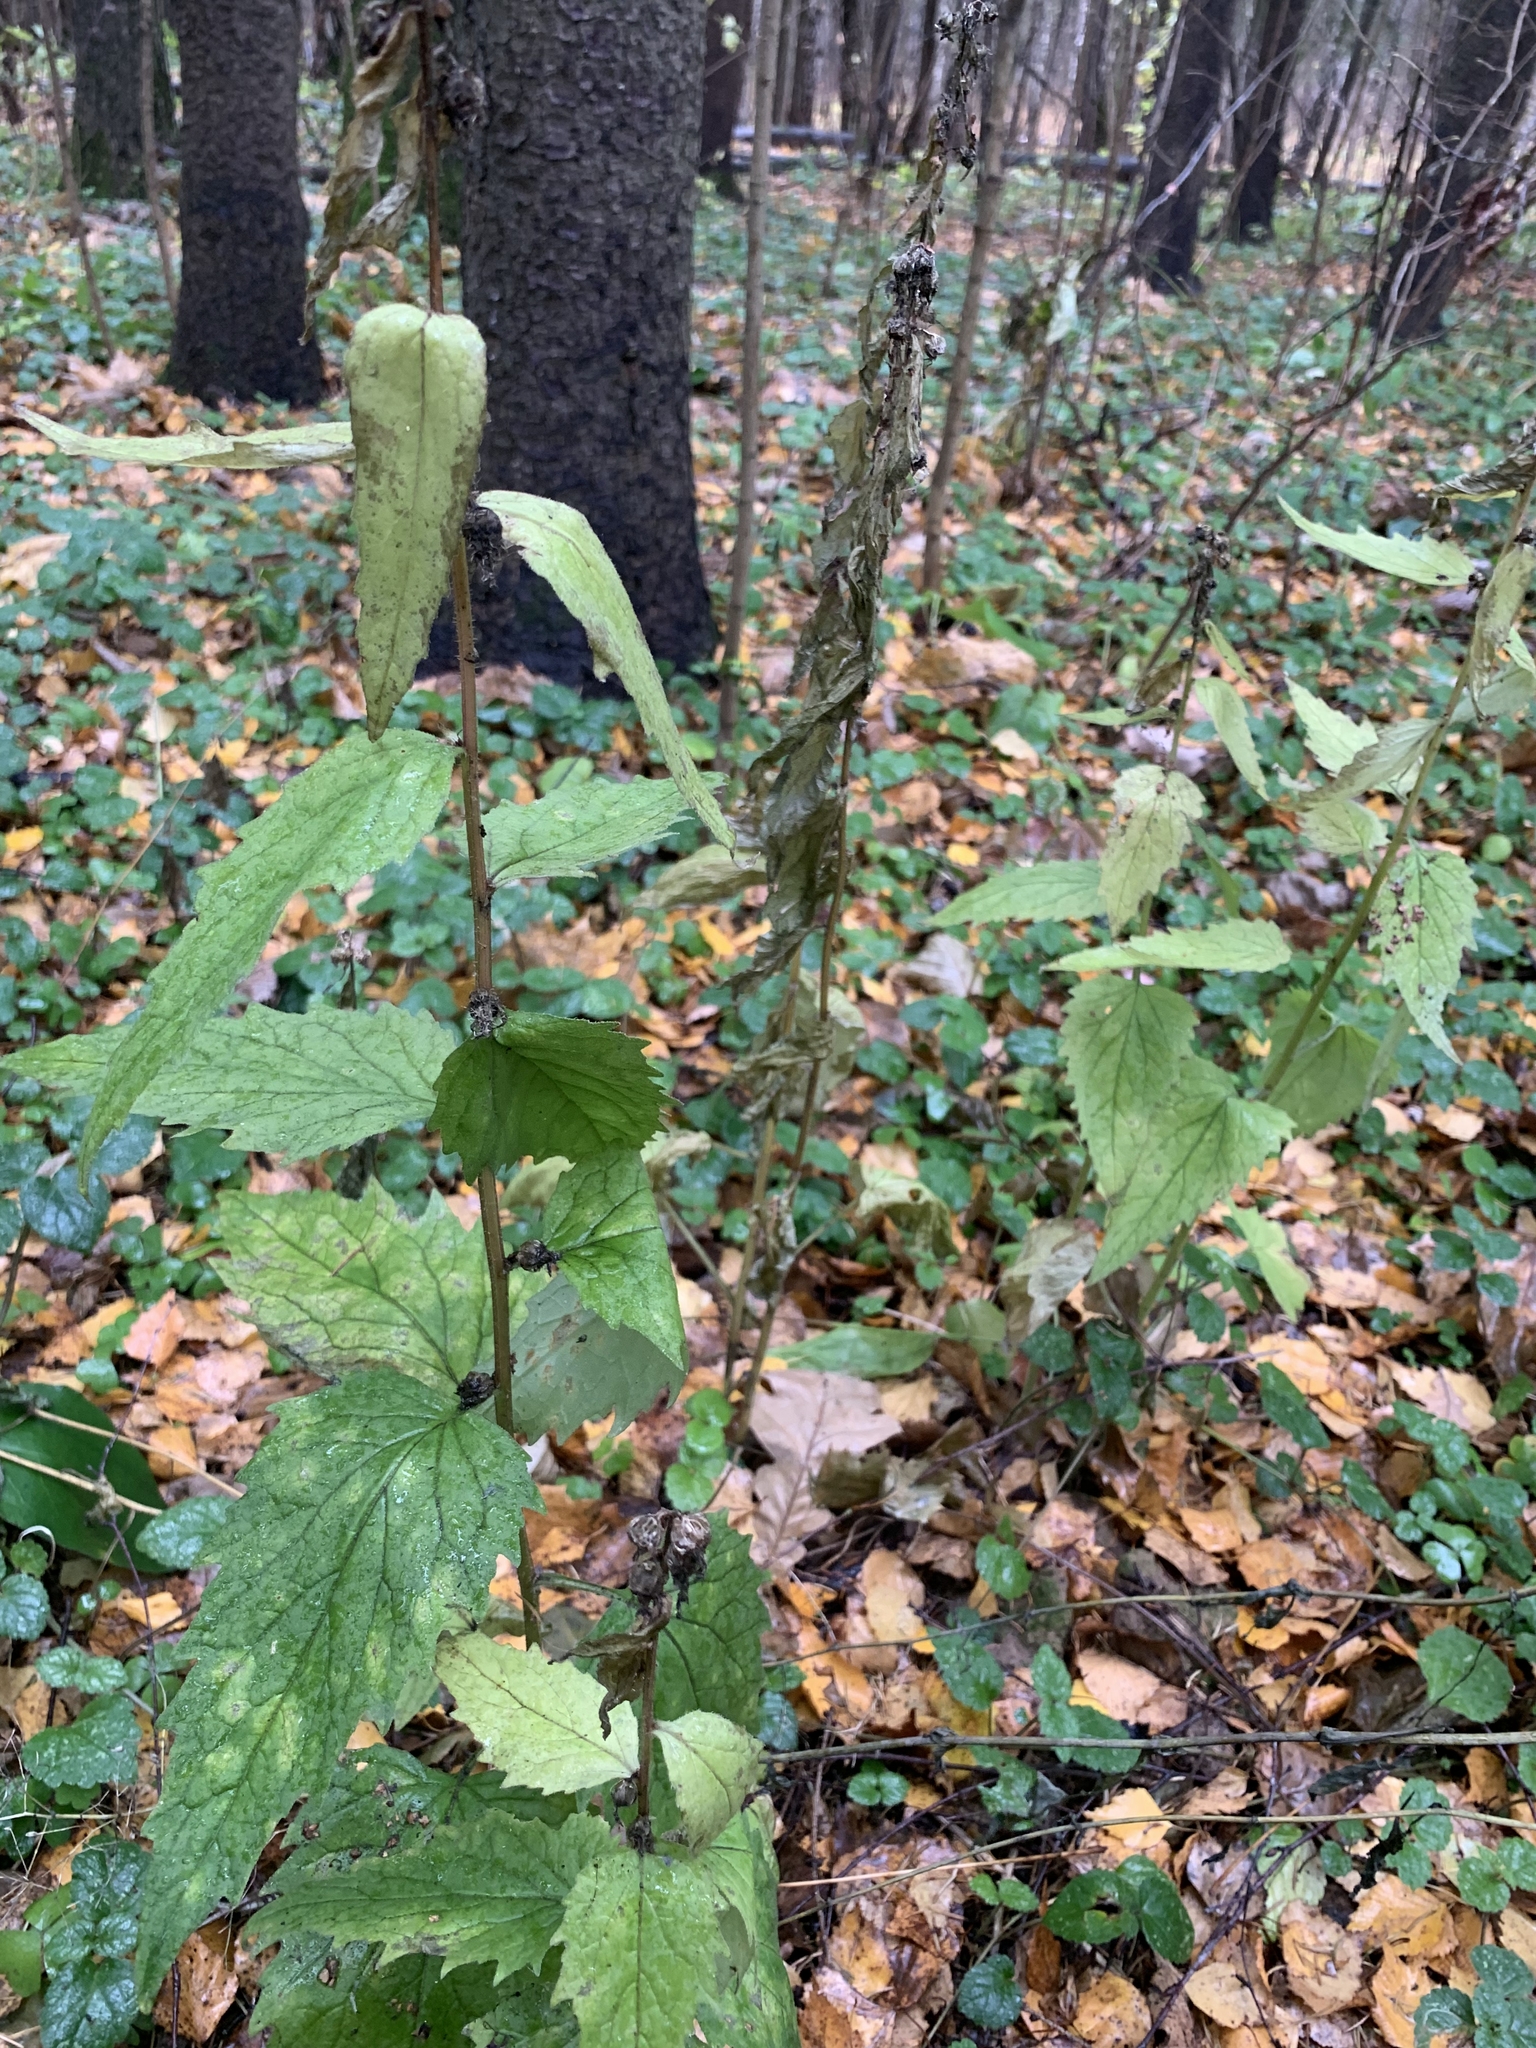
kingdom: Plantae
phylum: Tracheophyta
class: Magnoliopsida
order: Asterales
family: Campanulaceae
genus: Campanula
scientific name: Campanula trachelium
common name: Nettle-leaved bellflower
